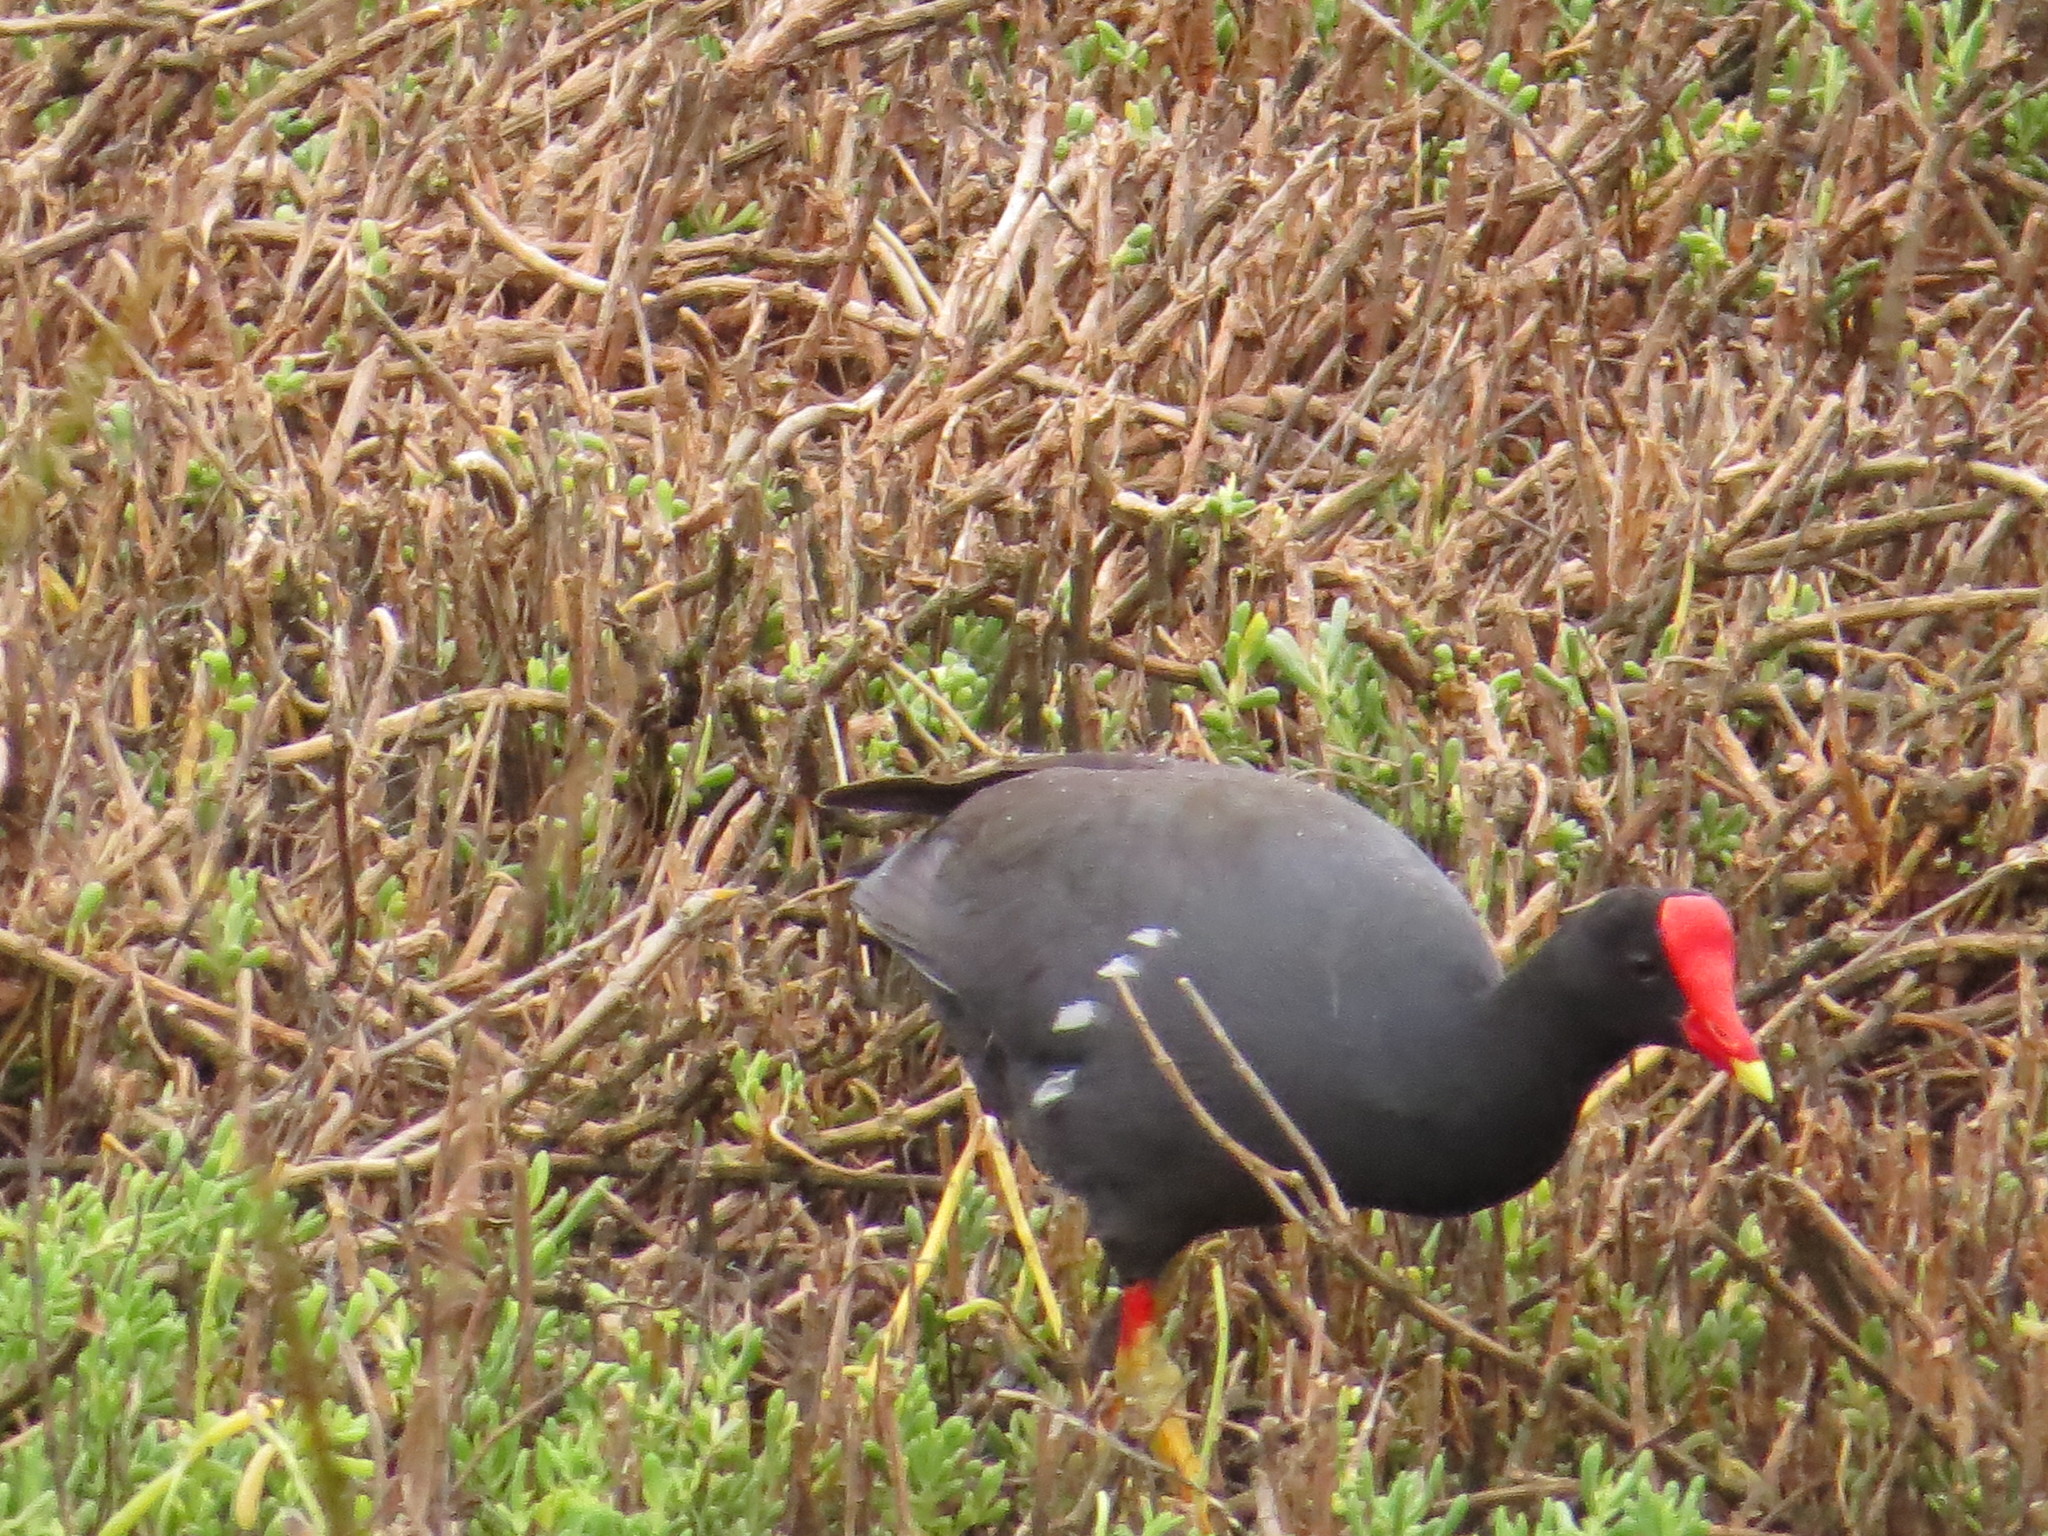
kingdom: Animalia
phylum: Chordata
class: Aves
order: Gruiformes
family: Rallidae
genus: Gallinula
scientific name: Gallinula chloropus
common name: Common moorhen
